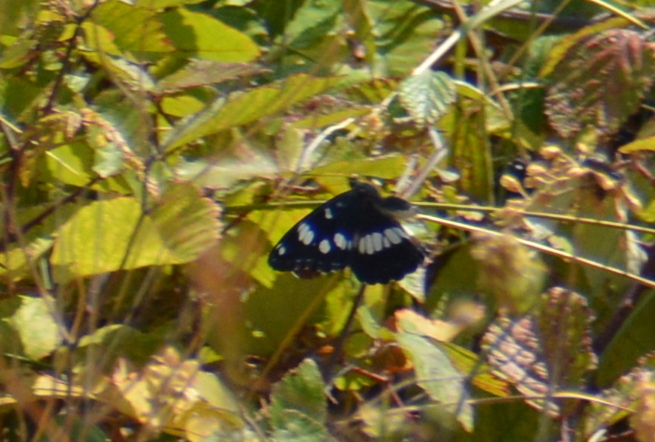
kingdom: Animalia
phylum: Arthropoda
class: Insecta
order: Lepidoptera
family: Nymphalidae
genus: Limenitis
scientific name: Limenitis reducta
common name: Southern white admiral
